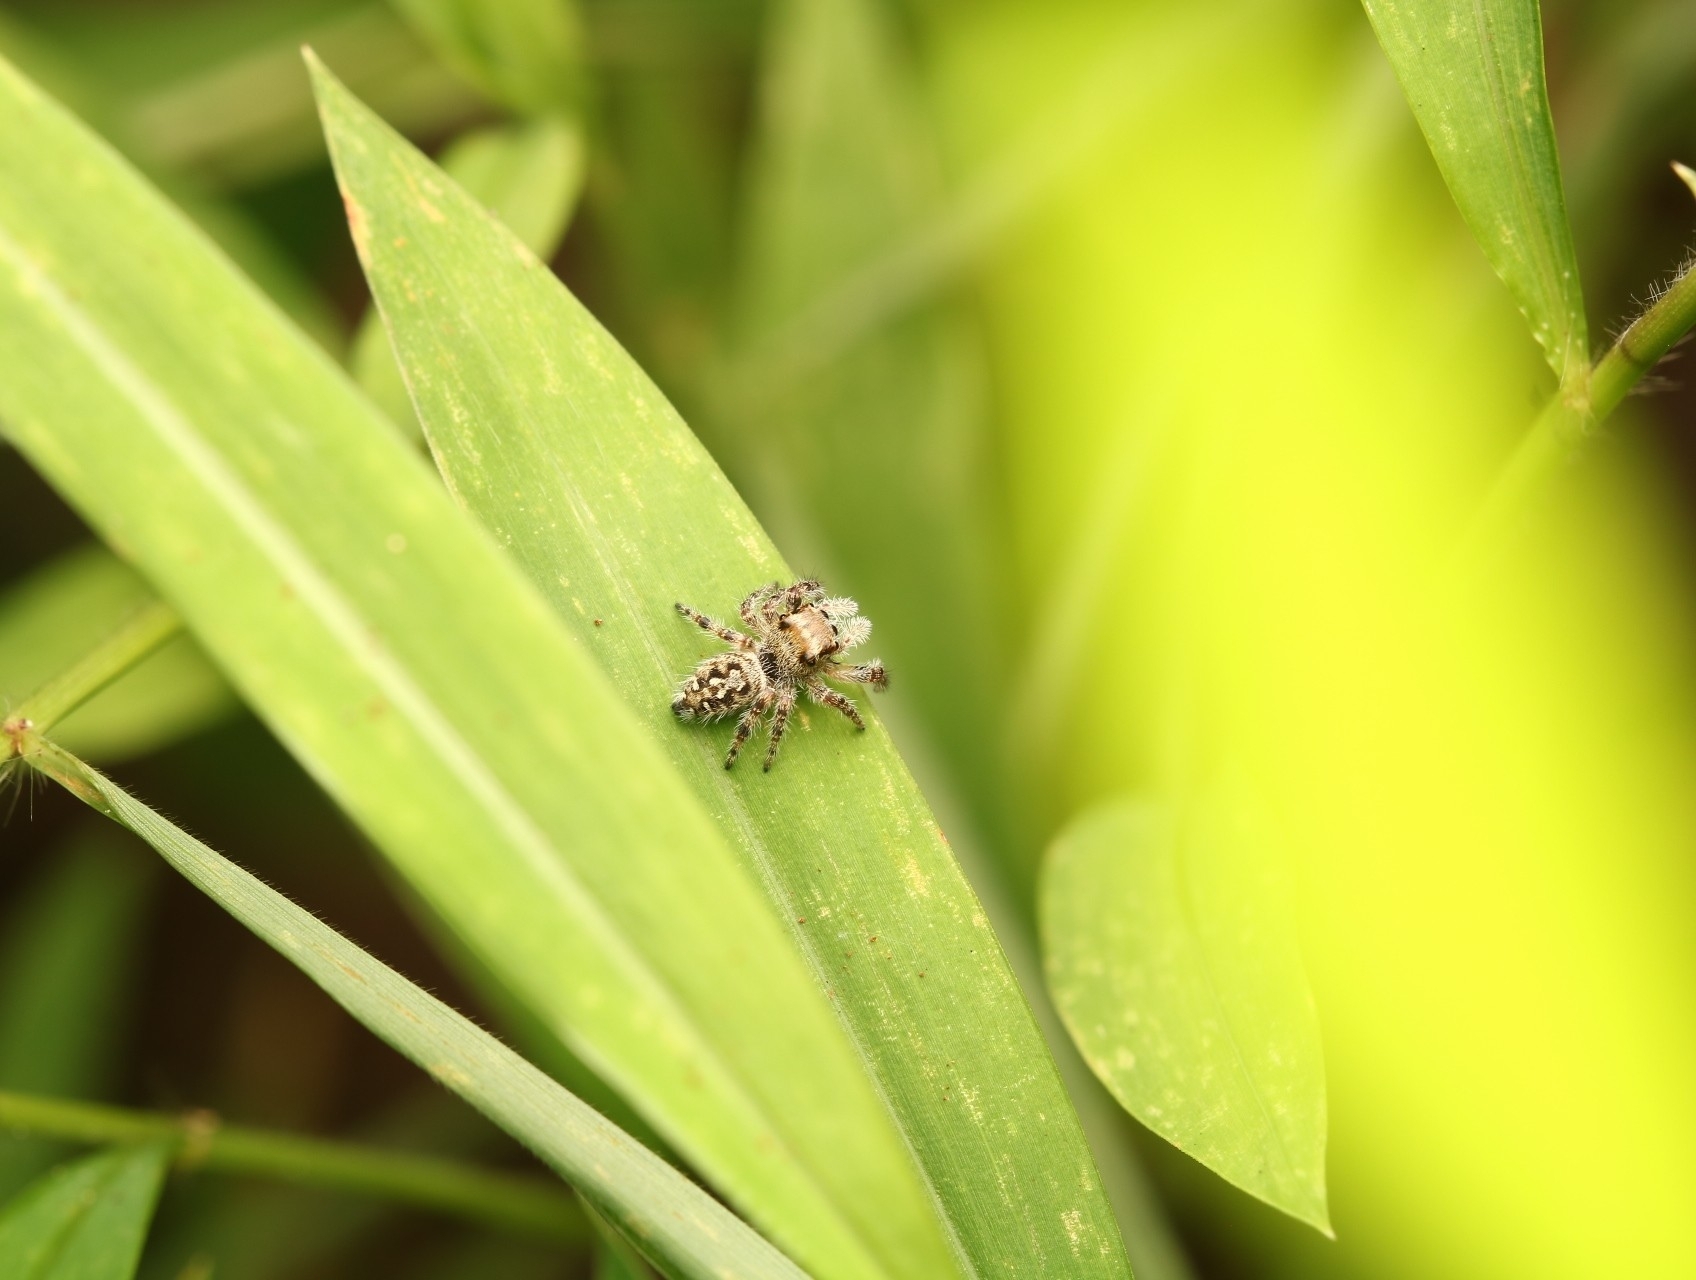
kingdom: Animalia
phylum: Arthropoda
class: Arachnida
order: Araneae
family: Salticidae
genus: Phidippus
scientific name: Phidippus mystaceus
